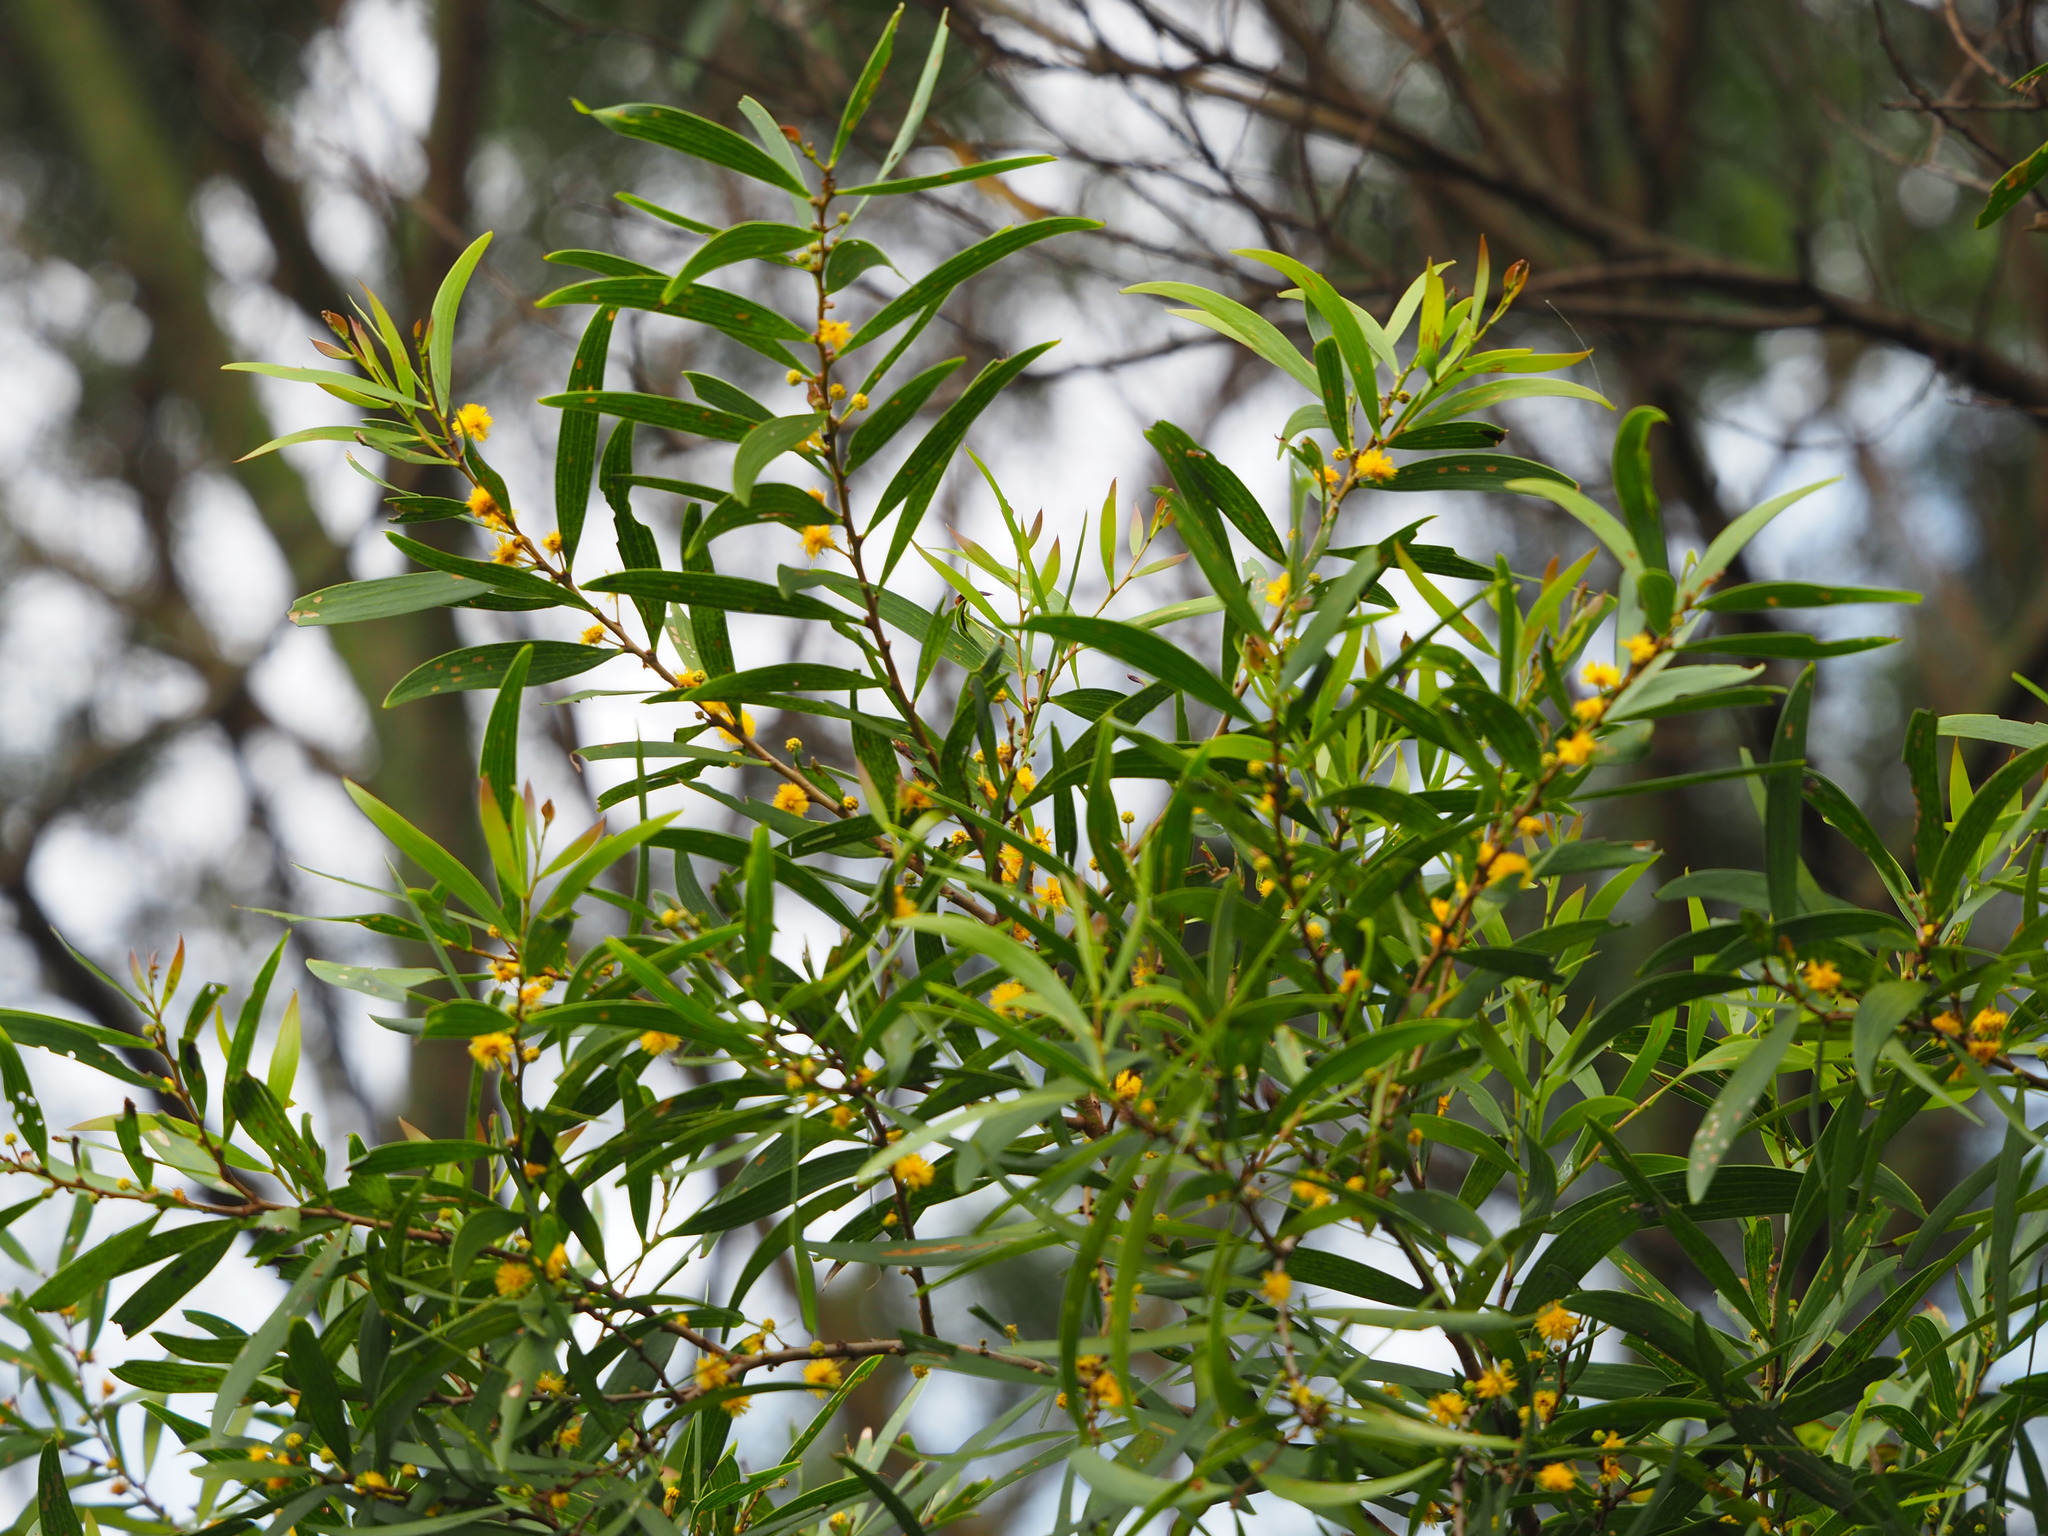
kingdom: Plantae
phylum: Tracheophyta
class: Magnoliopsida
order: Fabales
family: Fabaceae
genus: Acacia
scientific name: Acacia confusa
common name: Formosan koa
